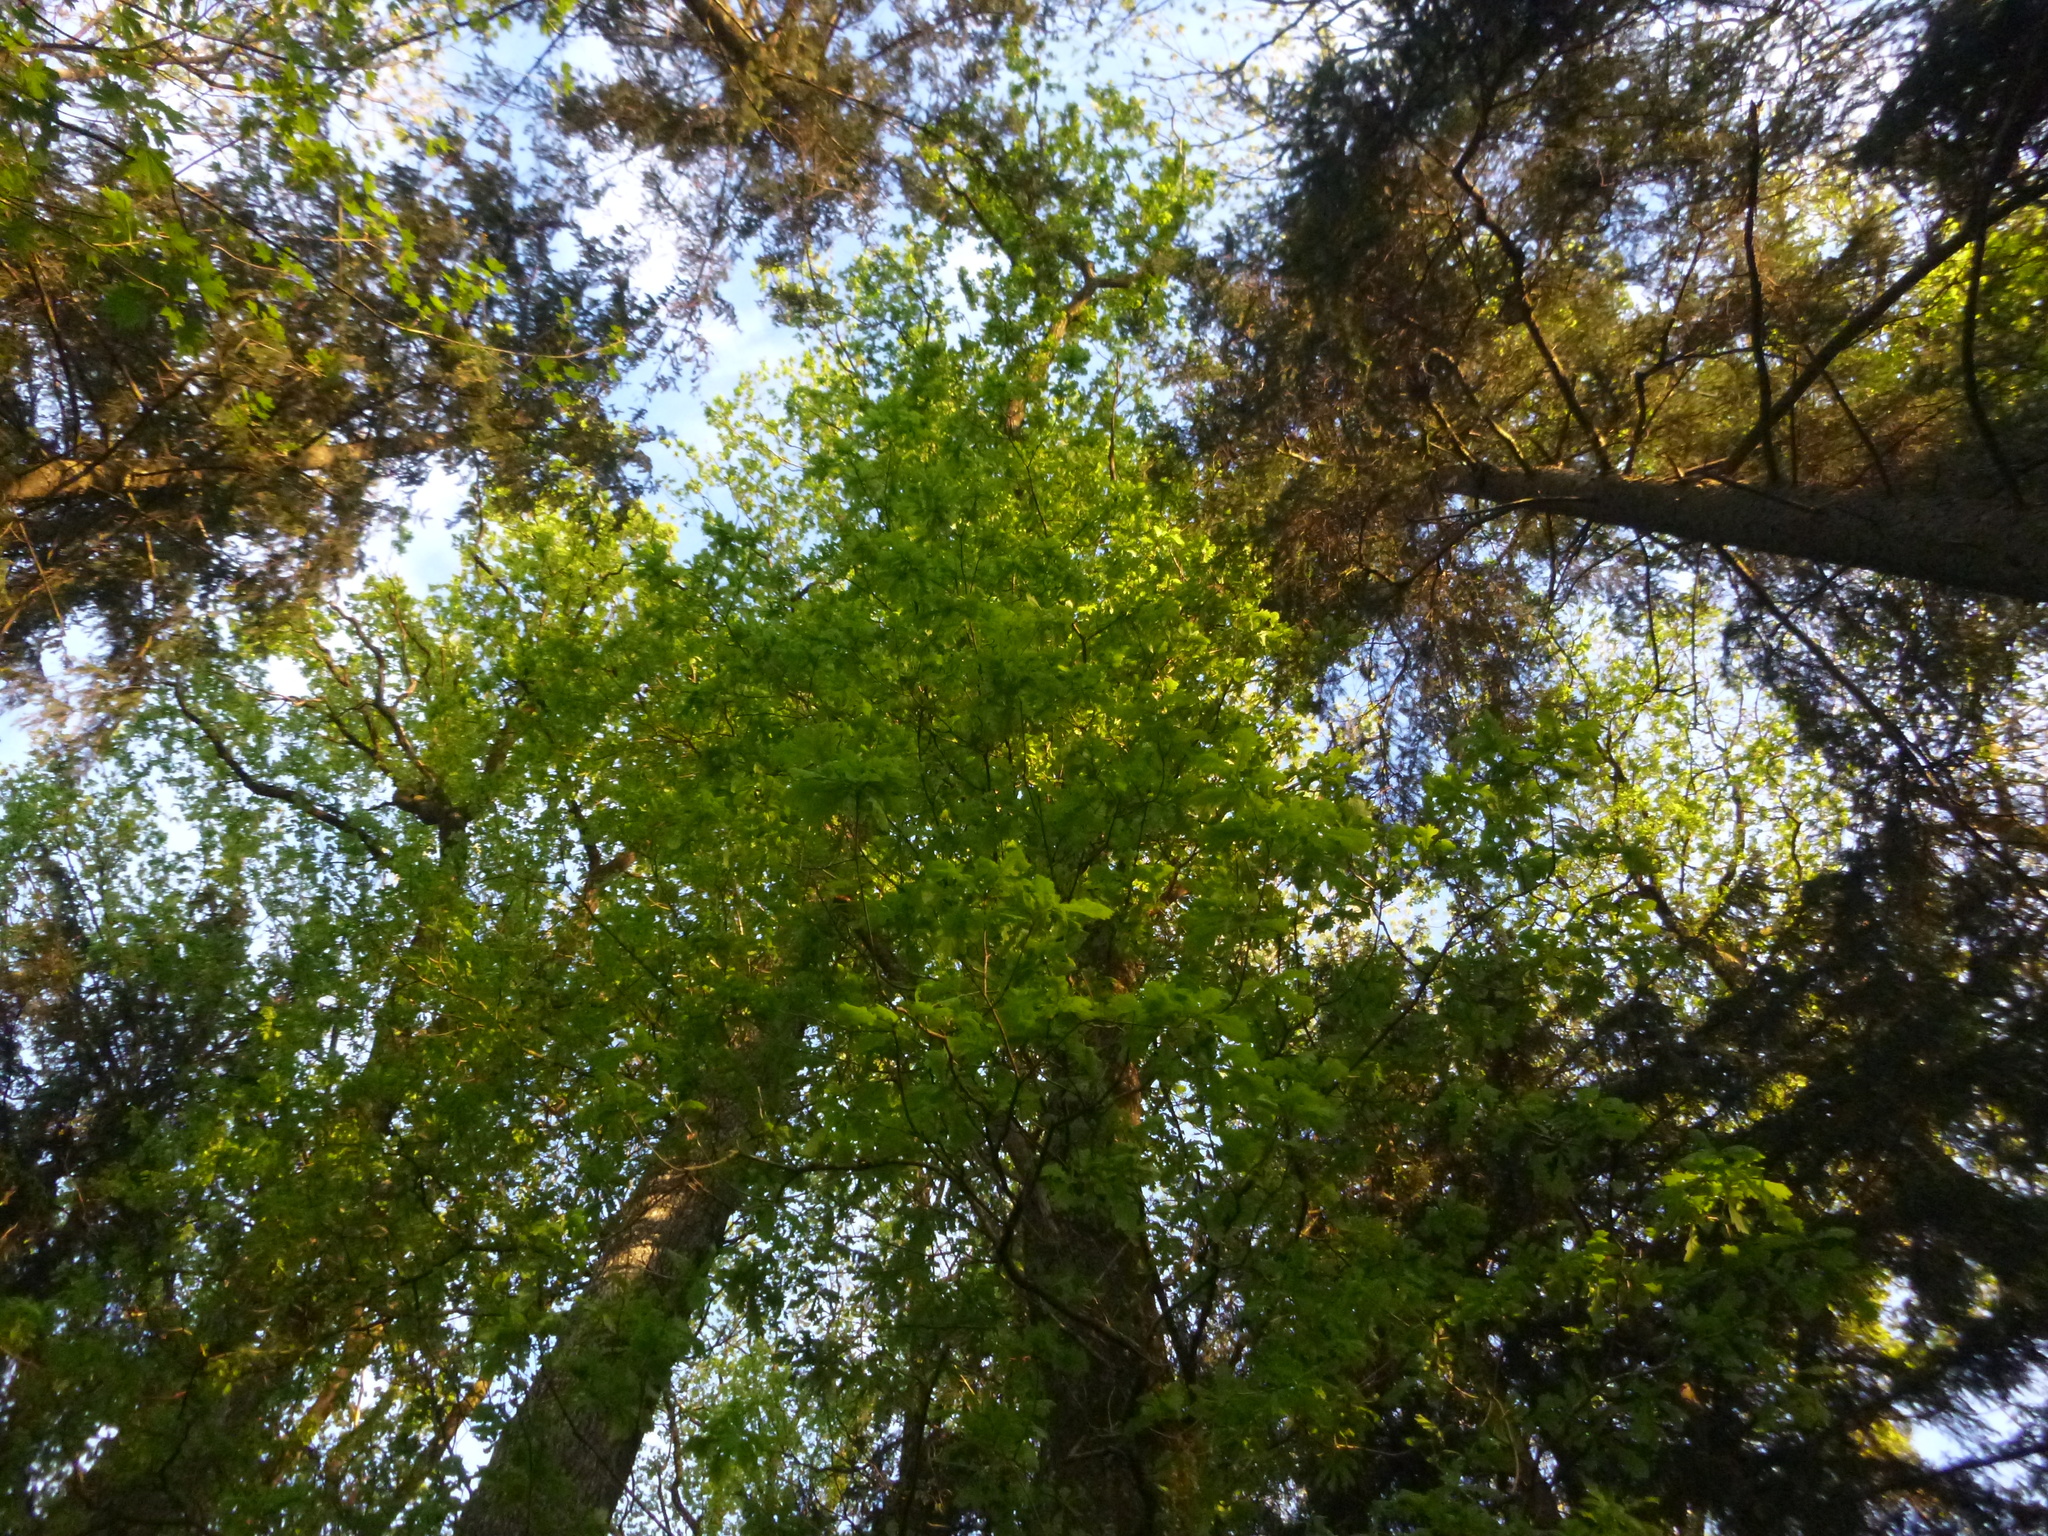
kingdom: Plantae
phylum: Tracheophyta
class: Magnoliopsida
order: Fagales
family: Fagaceae
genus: Quercus
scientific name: Quercus robur
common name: Pedunculate oak
